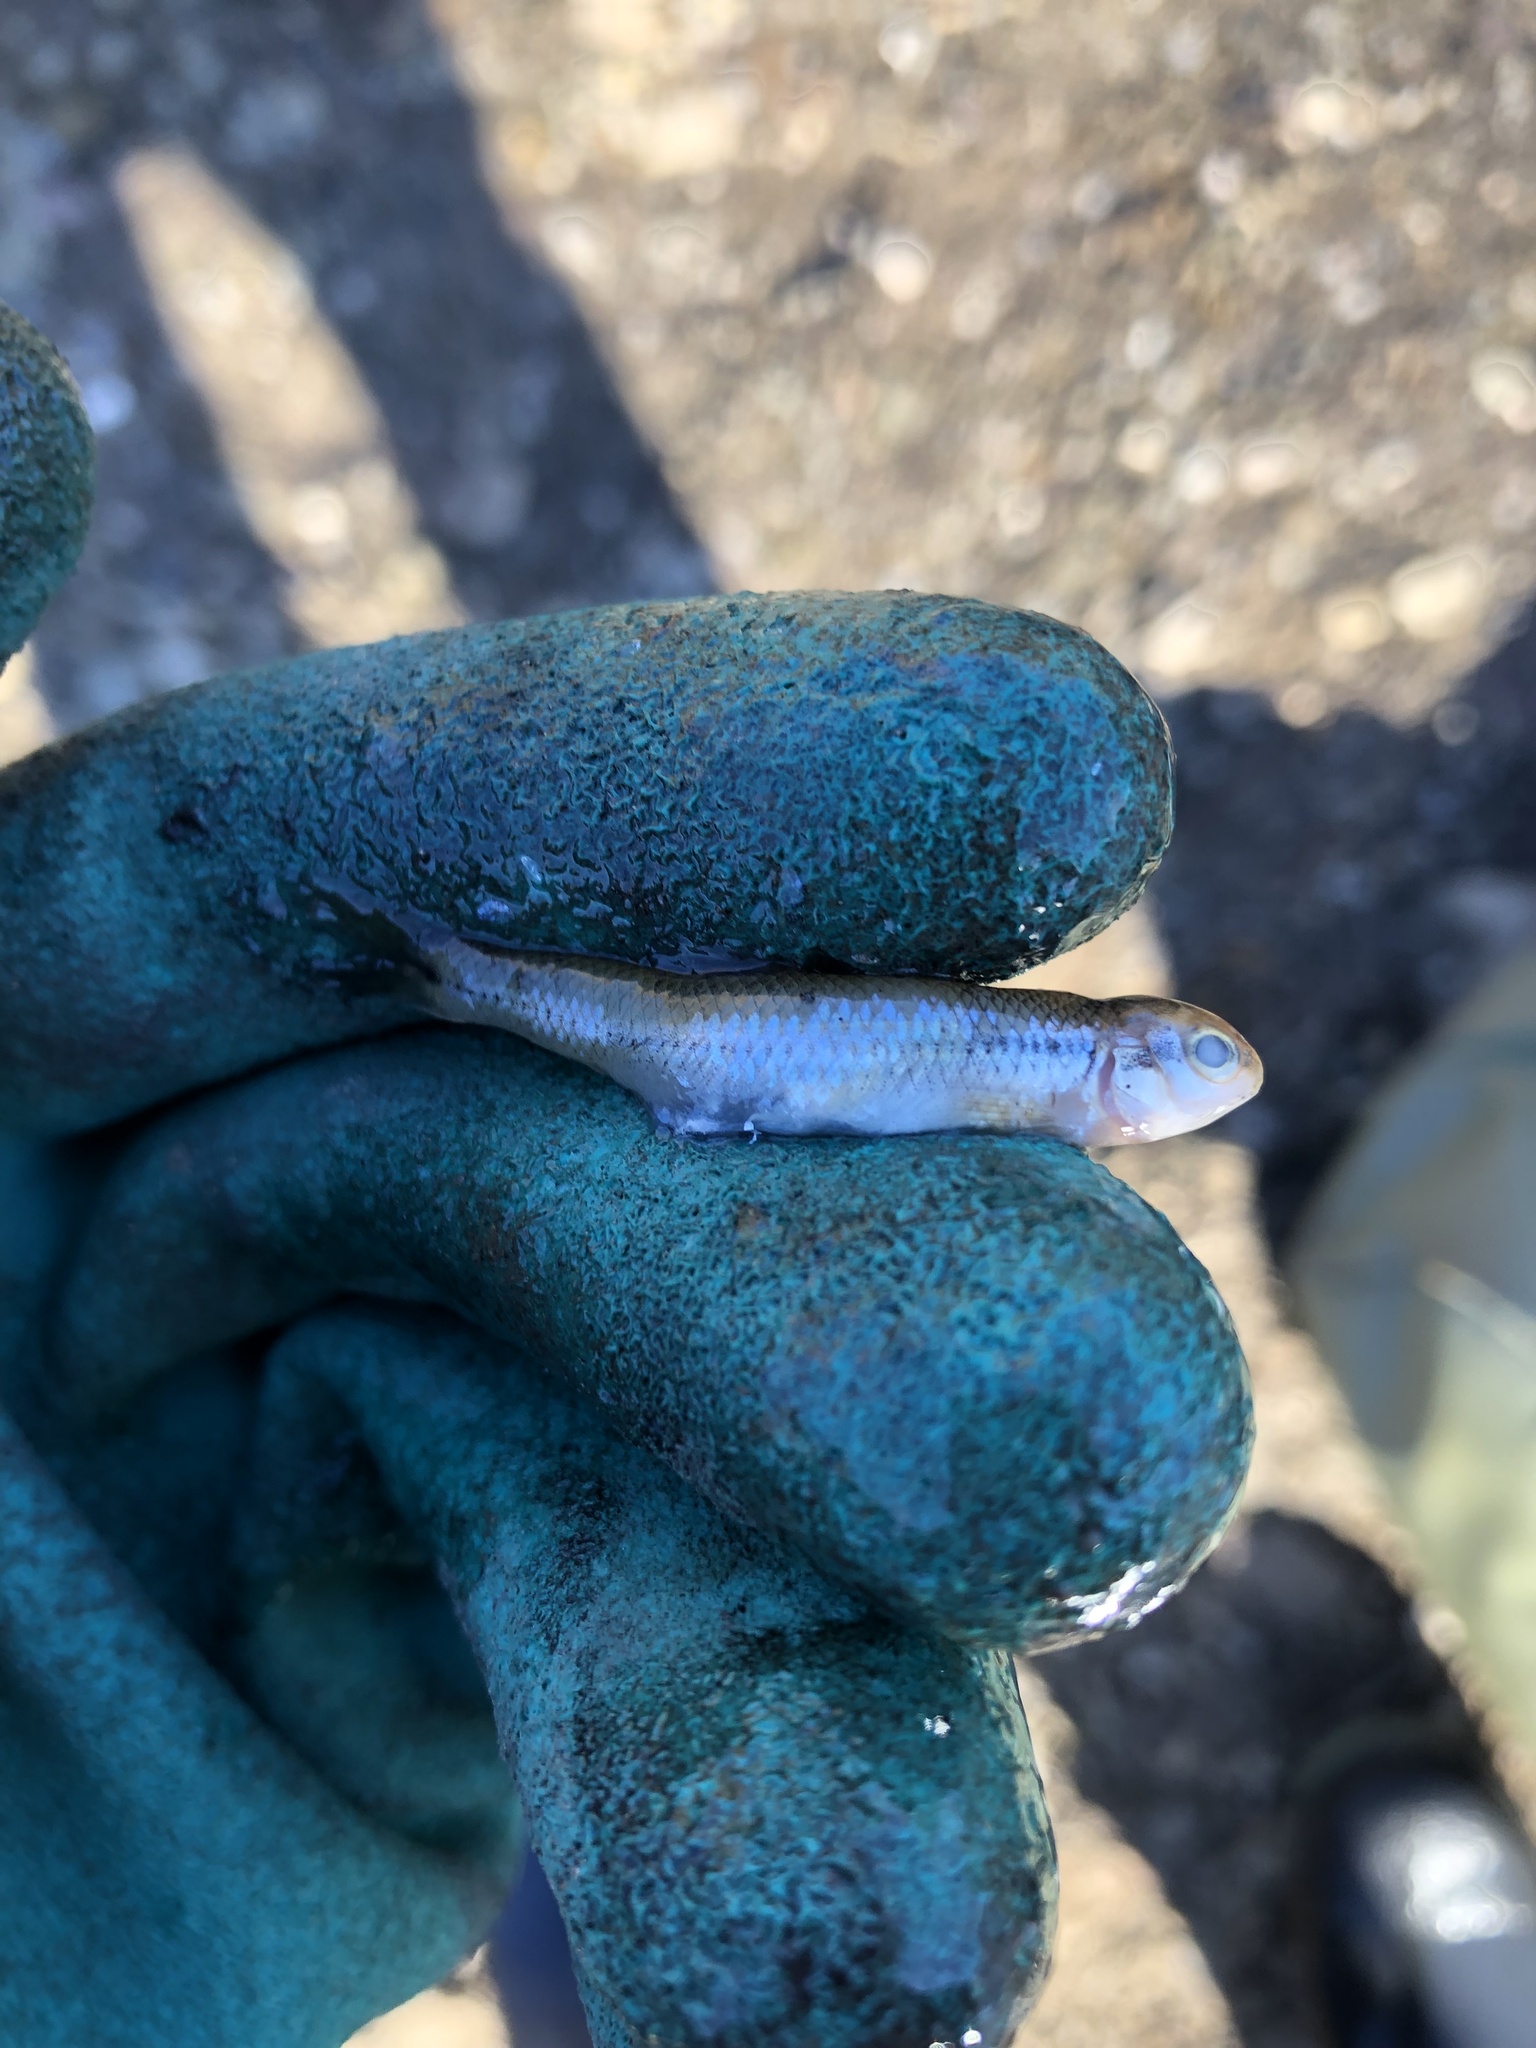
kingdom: Animalia
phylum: Chordata
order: Cypriniformes
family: Cyprinidae
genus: Pimephales
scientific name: Pimephales notatus
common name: Bluntnose minnow
